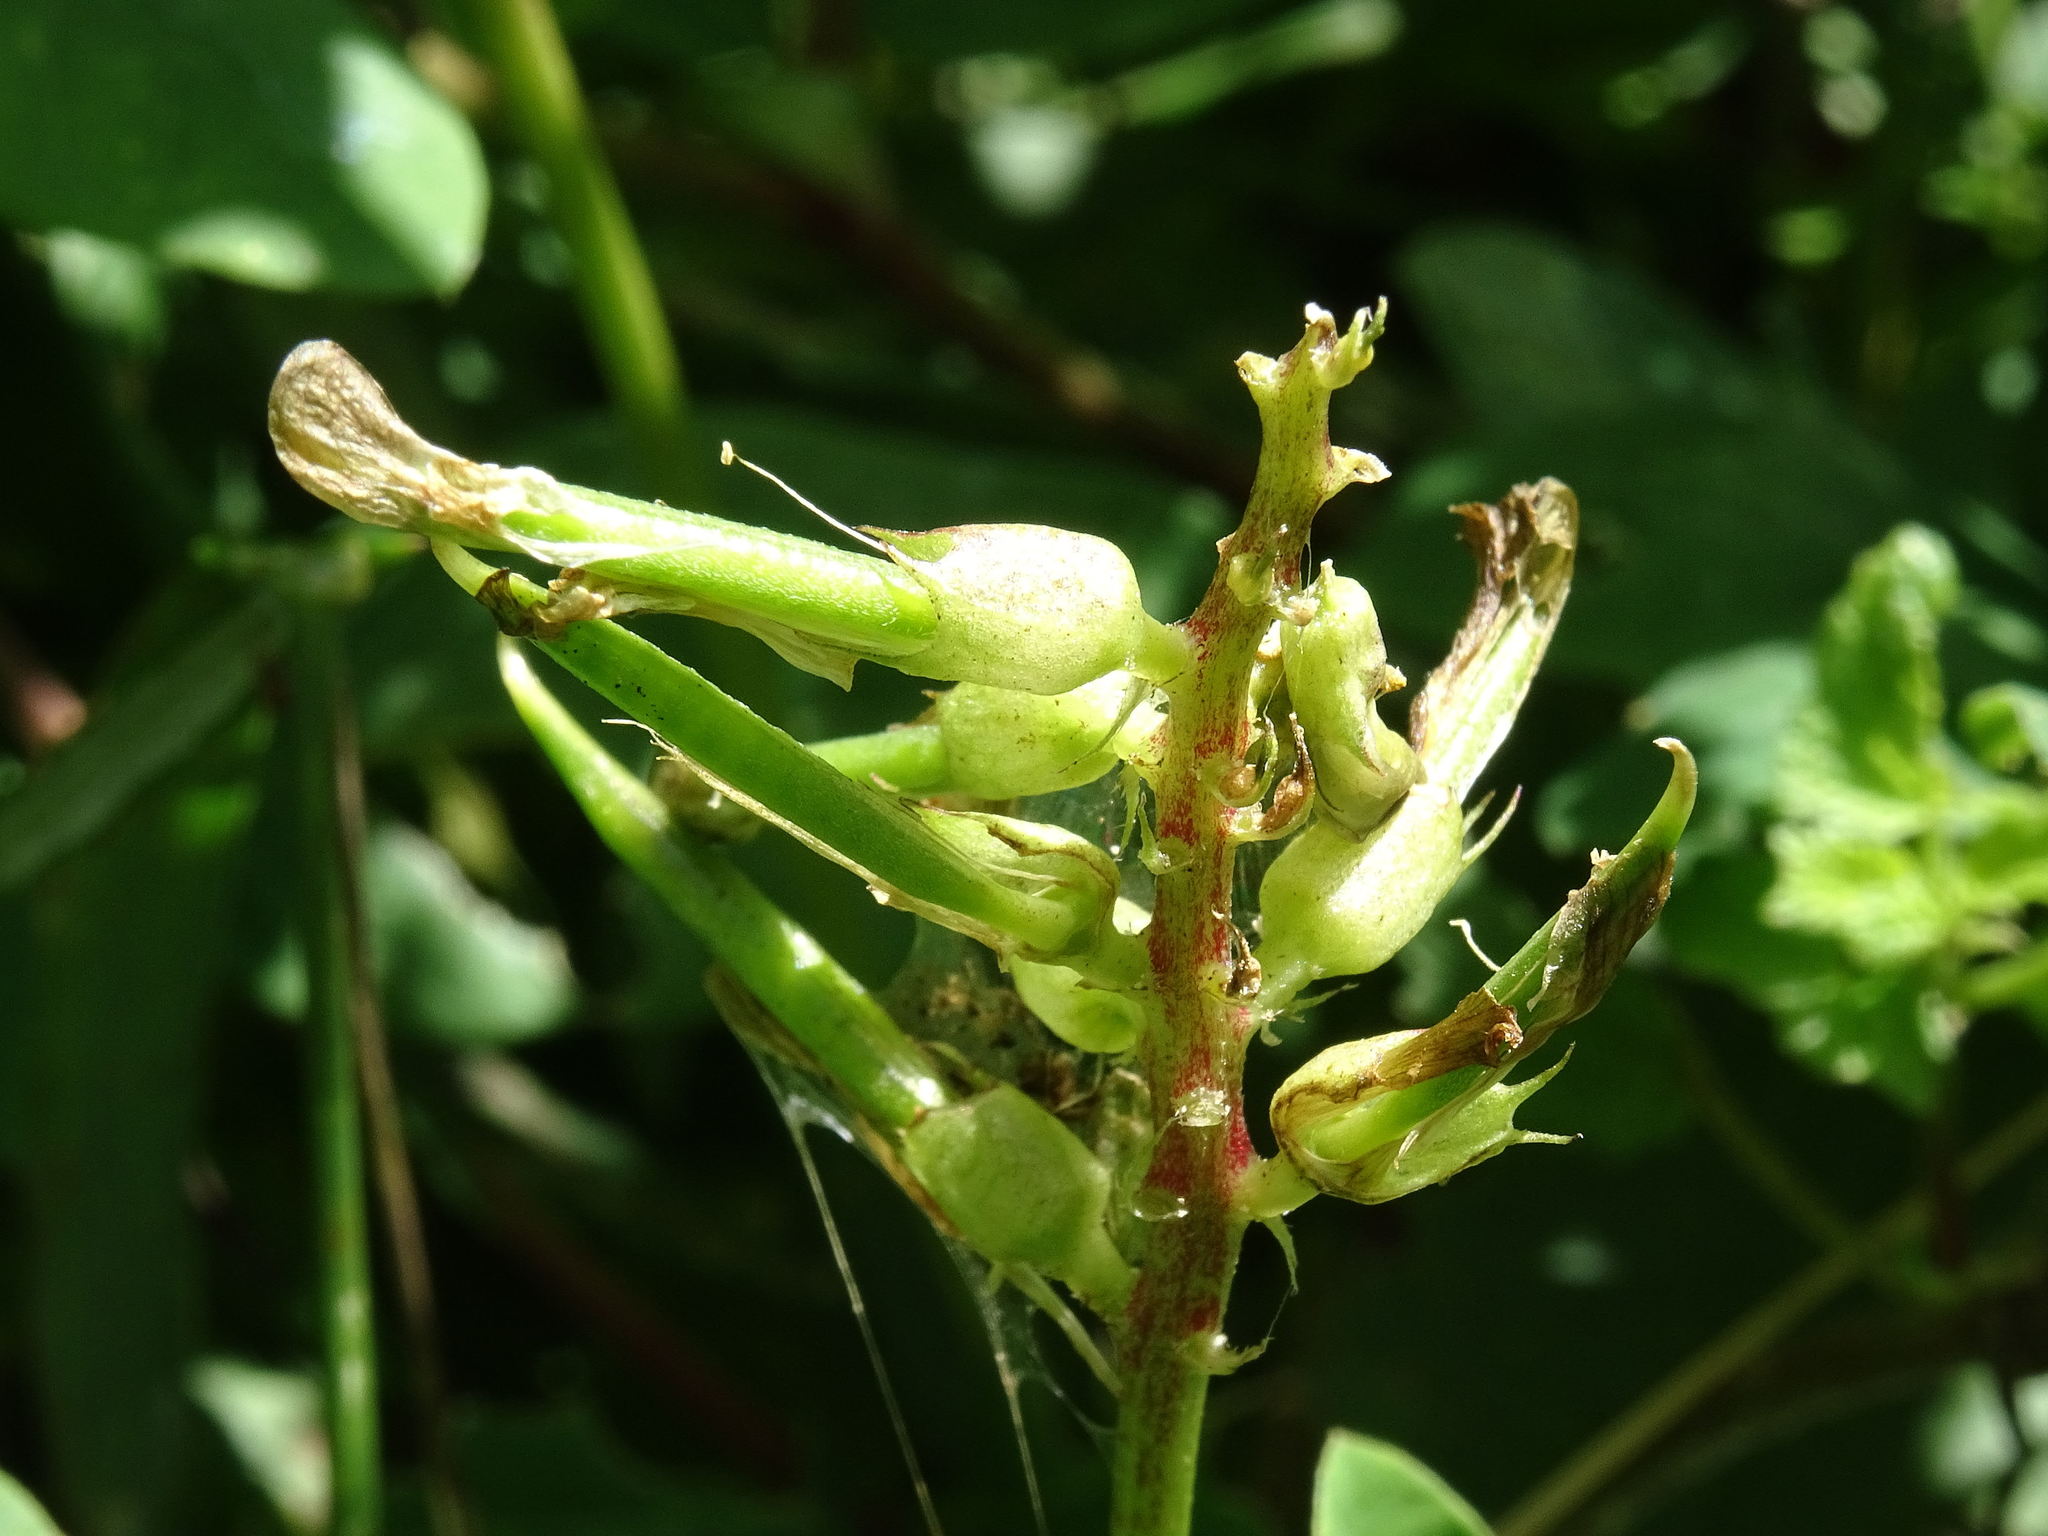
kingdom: Plantae
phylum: Tracheophyta
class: Magnoliopsida
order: Fabales
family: Fabaceae
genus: Astragalus
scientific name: Astragalus glycyphyllos
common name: Wild liquorice
